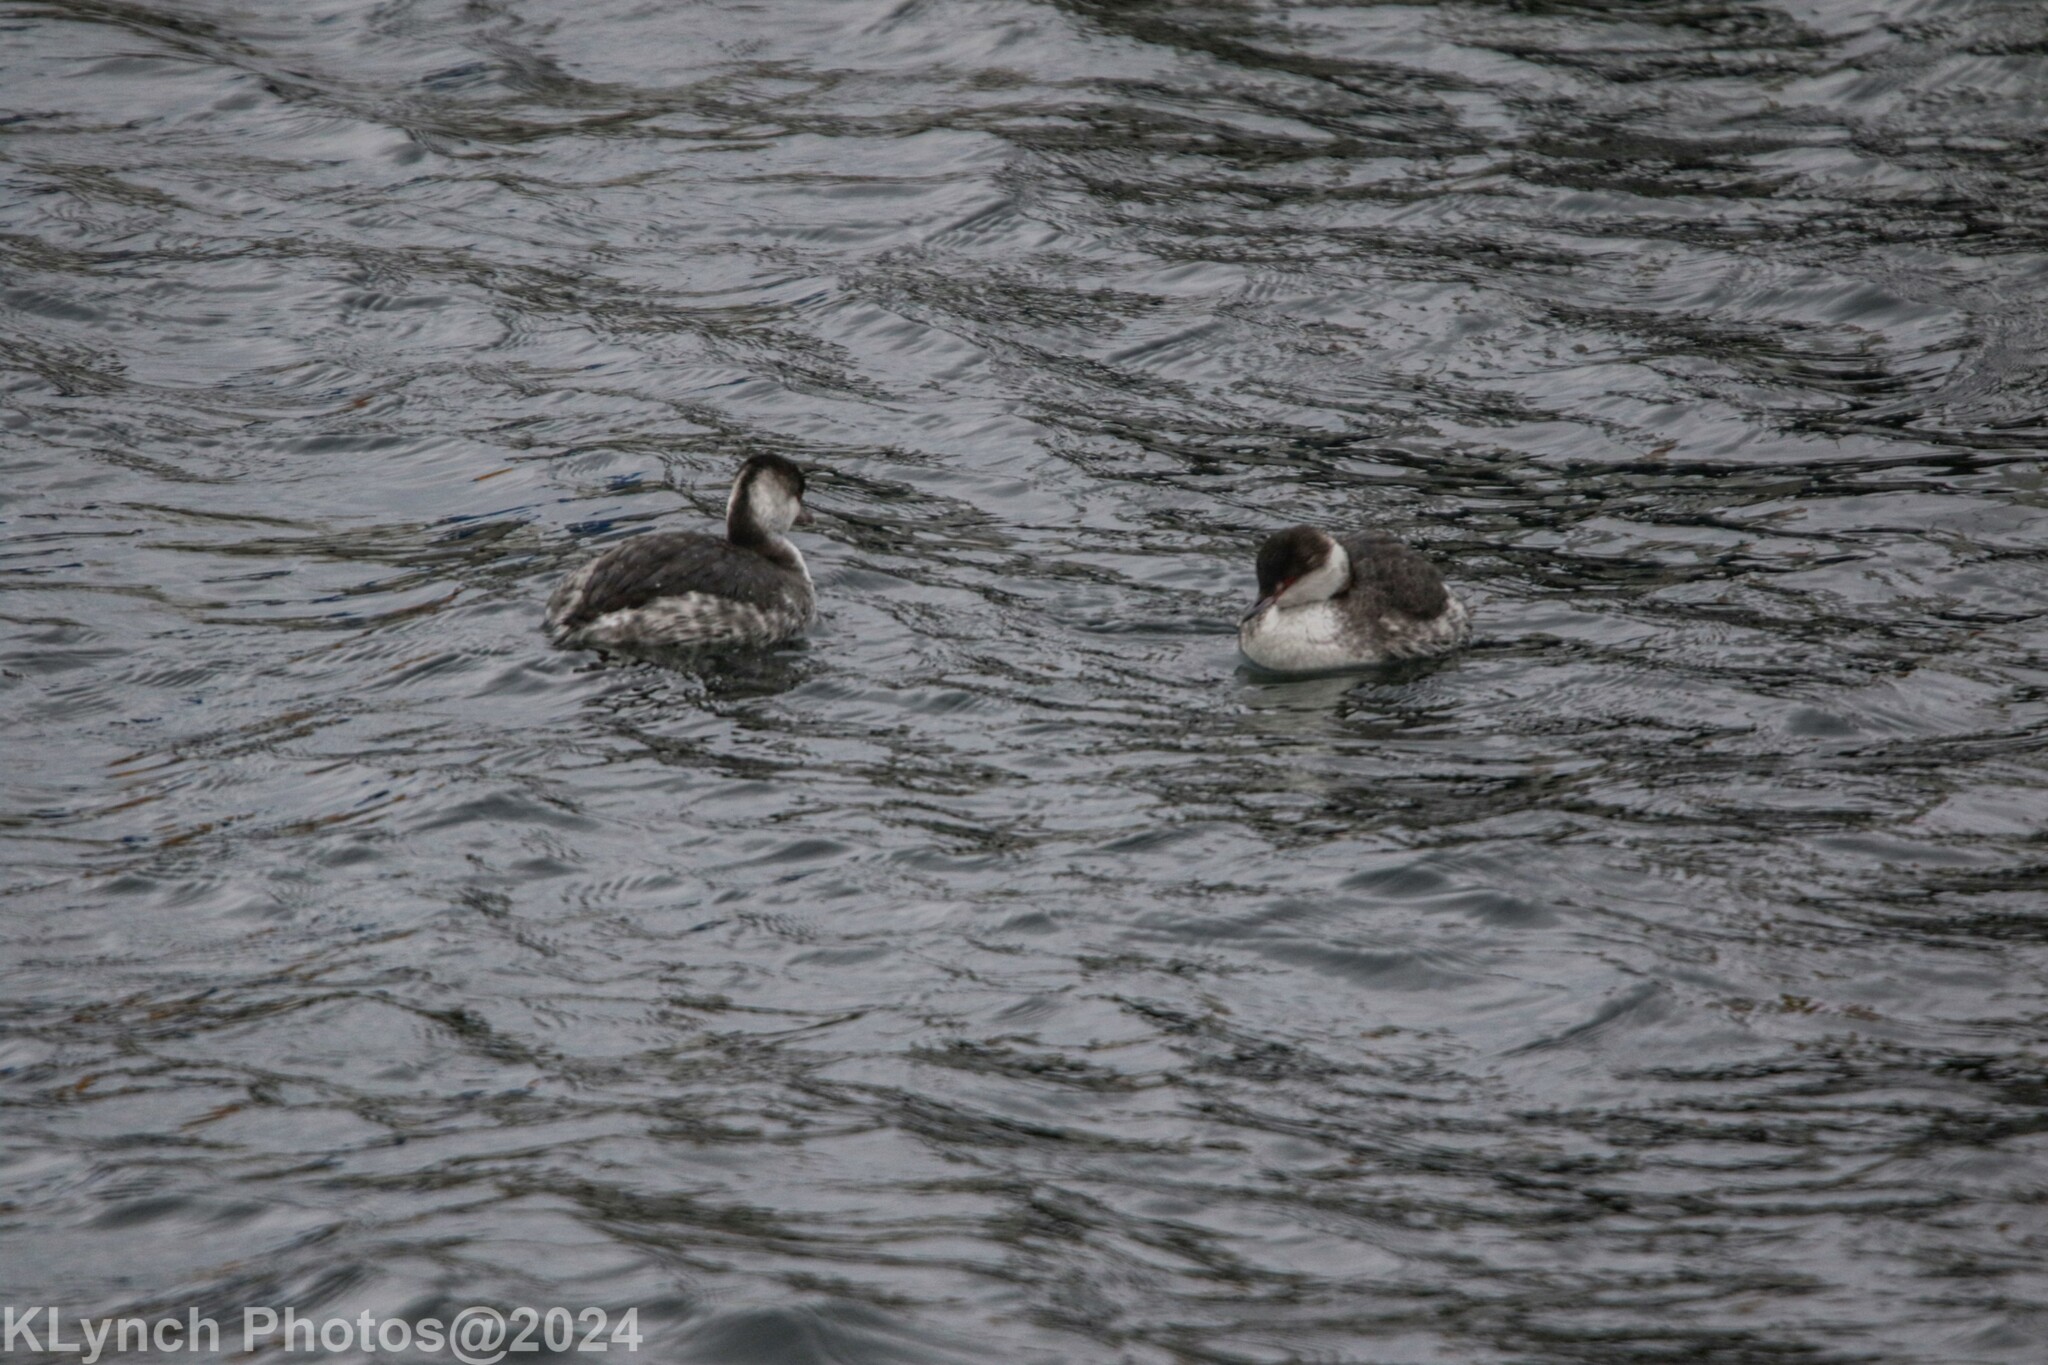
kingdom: Animalia
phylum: Chordata
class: Aves
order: Podicipediformes
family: Podicipedidae
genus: Podiceps
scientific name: Podiceps auritus
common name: Horned grebe
